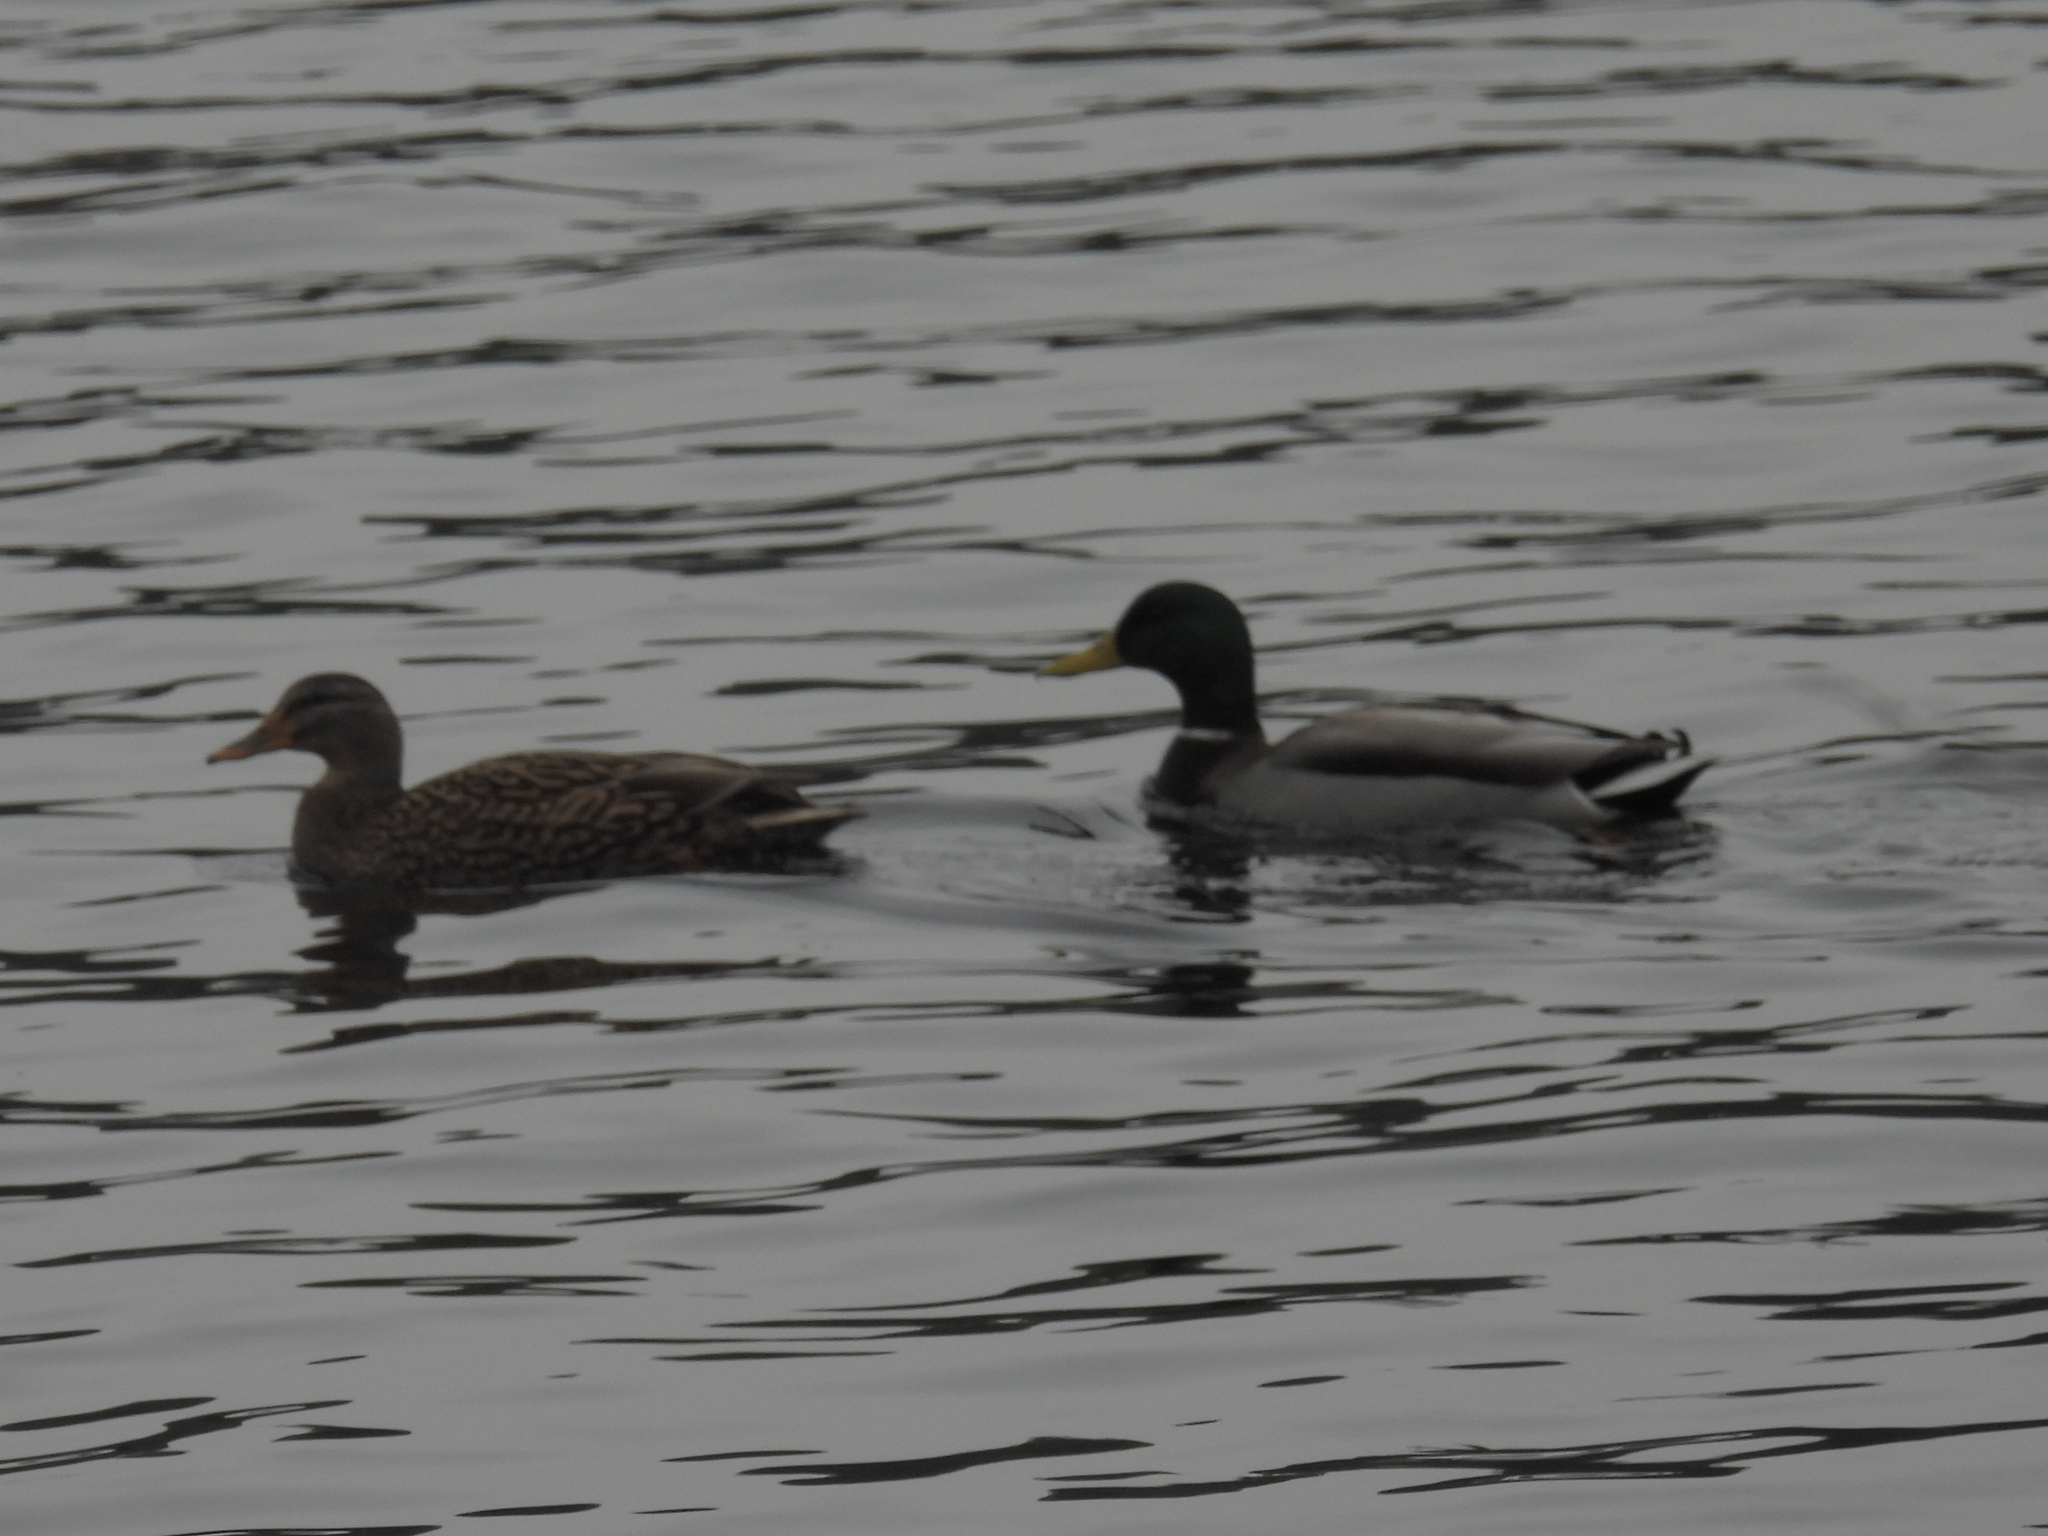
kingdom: Animalia
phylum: Chordata
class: Aves
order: Anseriformes
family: Anatidae
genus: Anas
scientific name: Anas platyrhynchos
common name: Mallard
